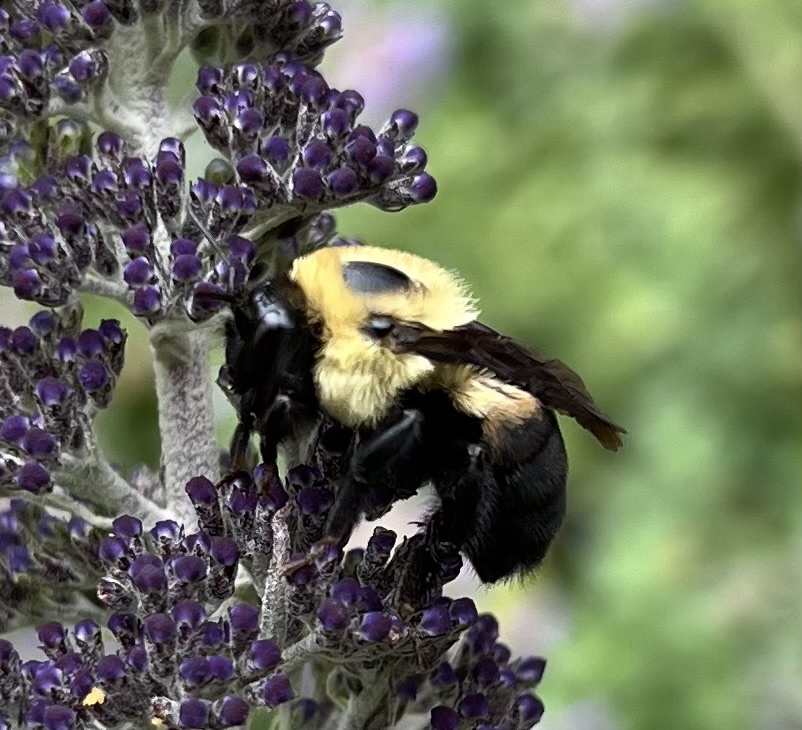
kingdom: Animalia
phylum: Arthropoda
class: Insecta
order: Hymenoptera
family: Apidae
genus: Bombus
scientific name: Bombus griseocollis
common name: Brown-belted bumble bee
